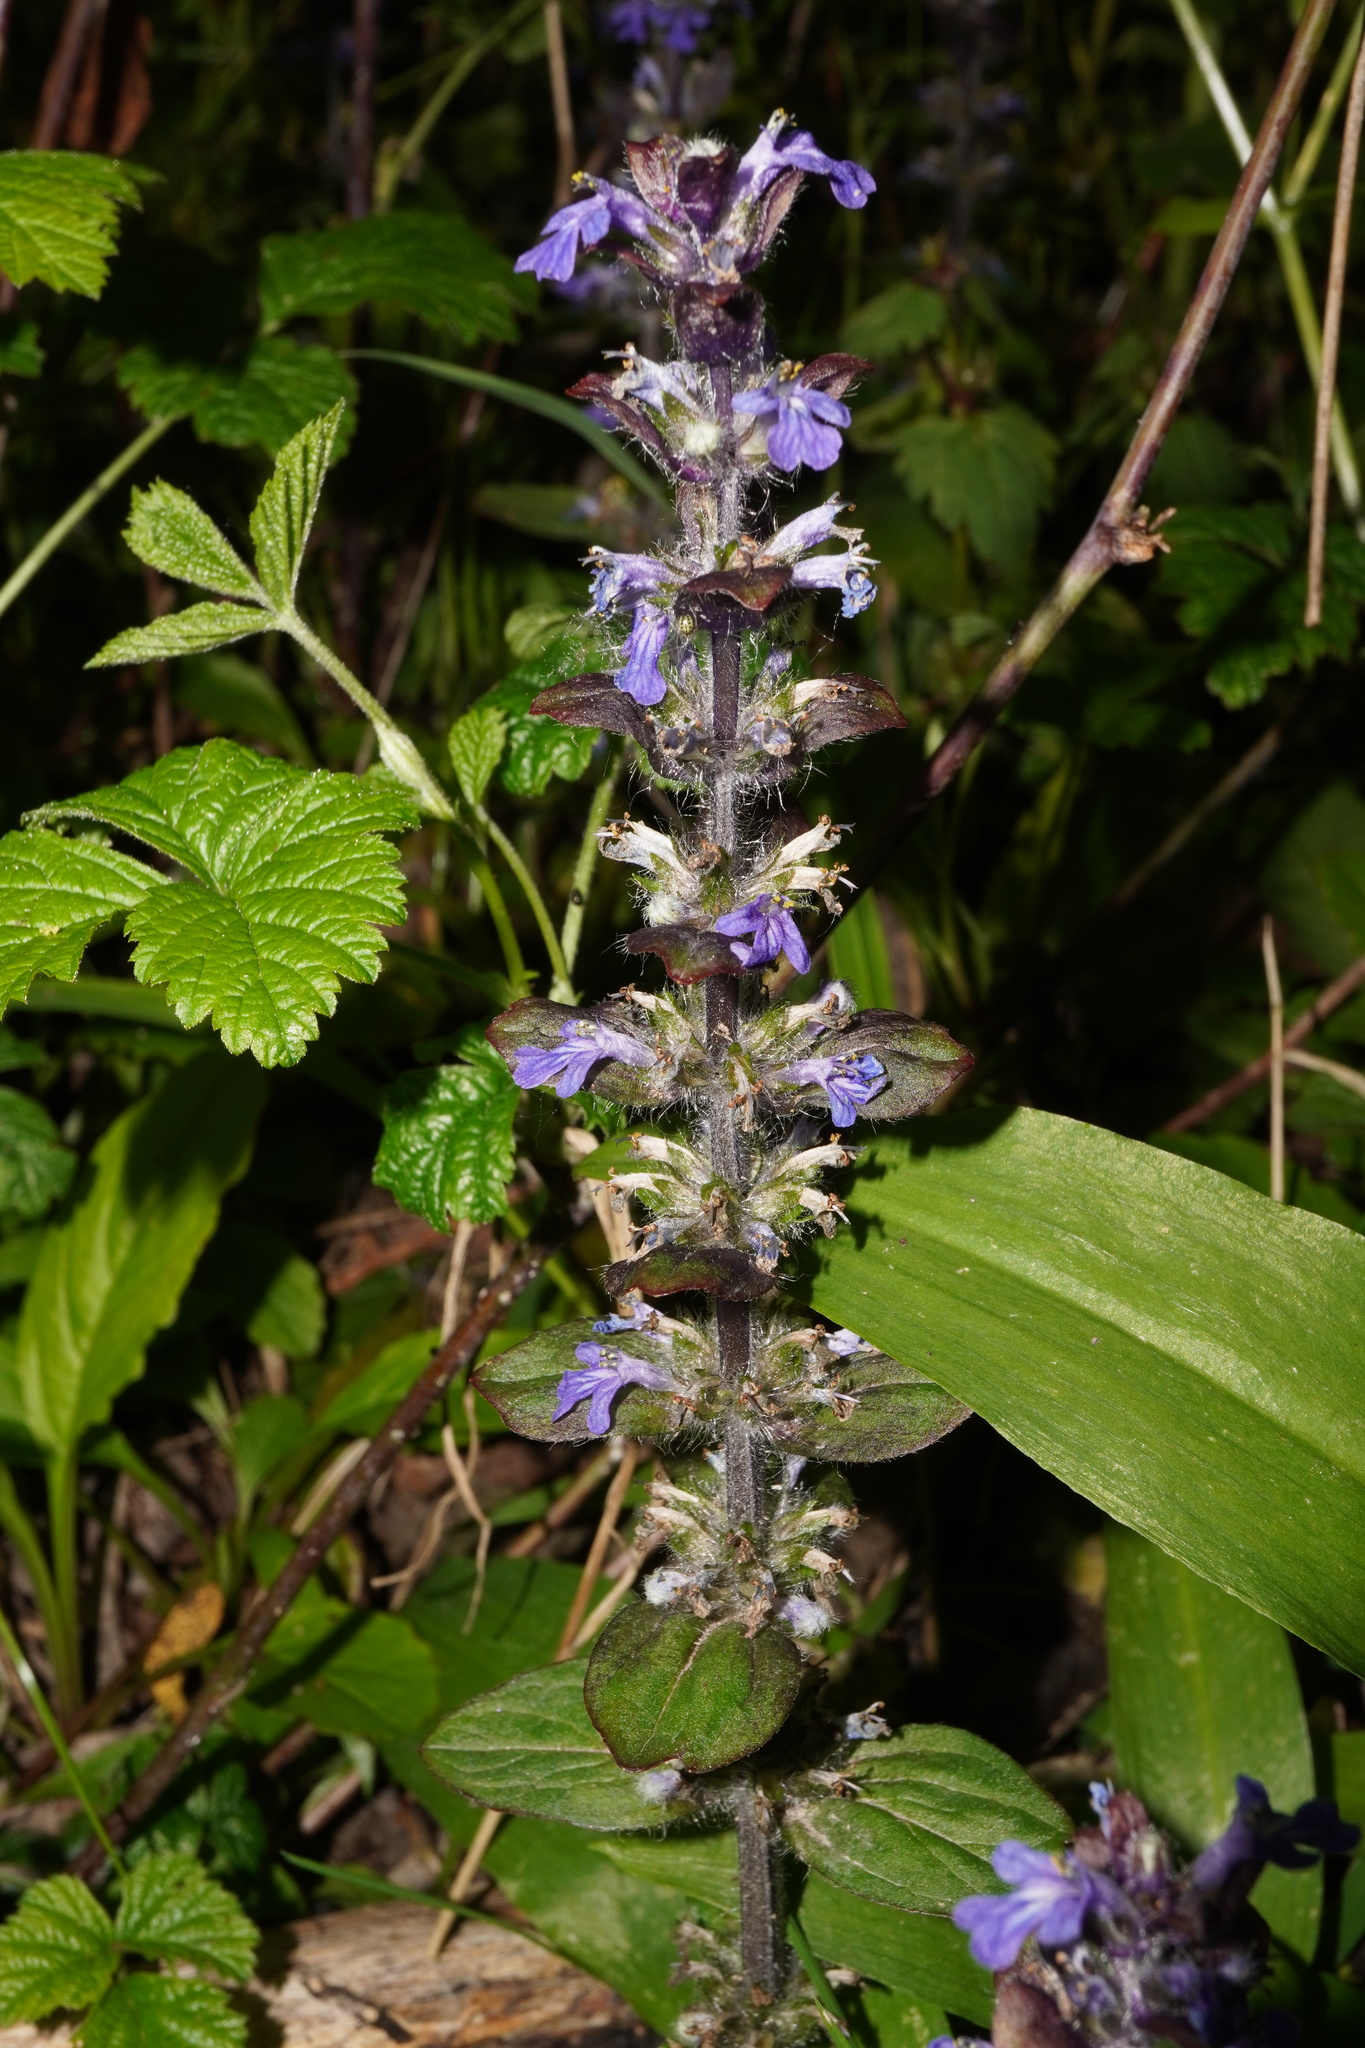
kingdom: Plantae
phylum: Tracheophyta
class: Magnoliopsida
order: Lamiales
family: Lamiaceae
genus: Ajuga
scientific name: Ajuga reptans
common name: Bugle
